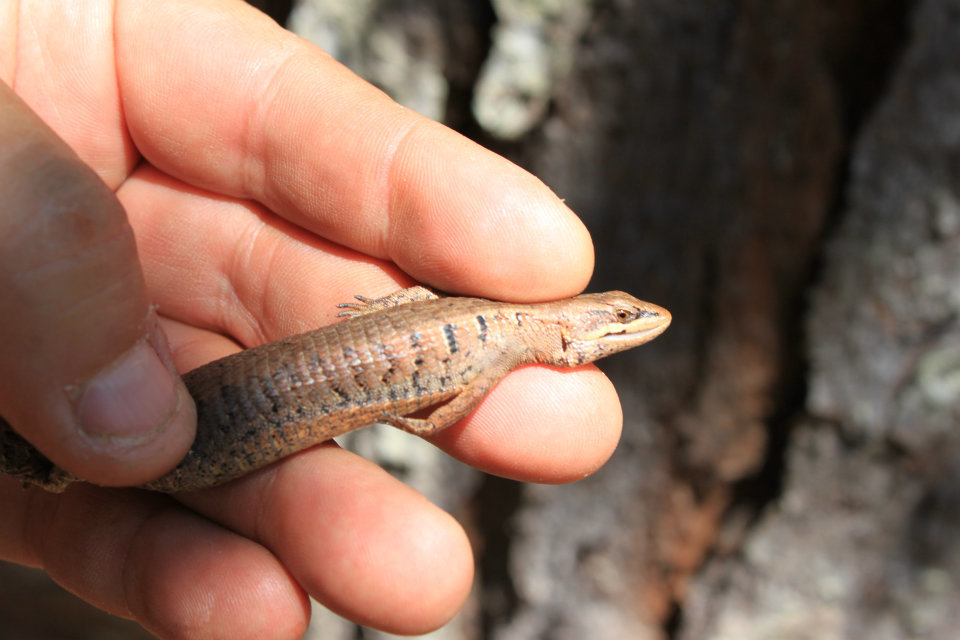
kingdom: Animalia
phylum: Chordata
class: Squamata
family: Anguidae
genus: Abronia
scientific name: Abronia gadovii
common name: Gadow's alligator lizard
